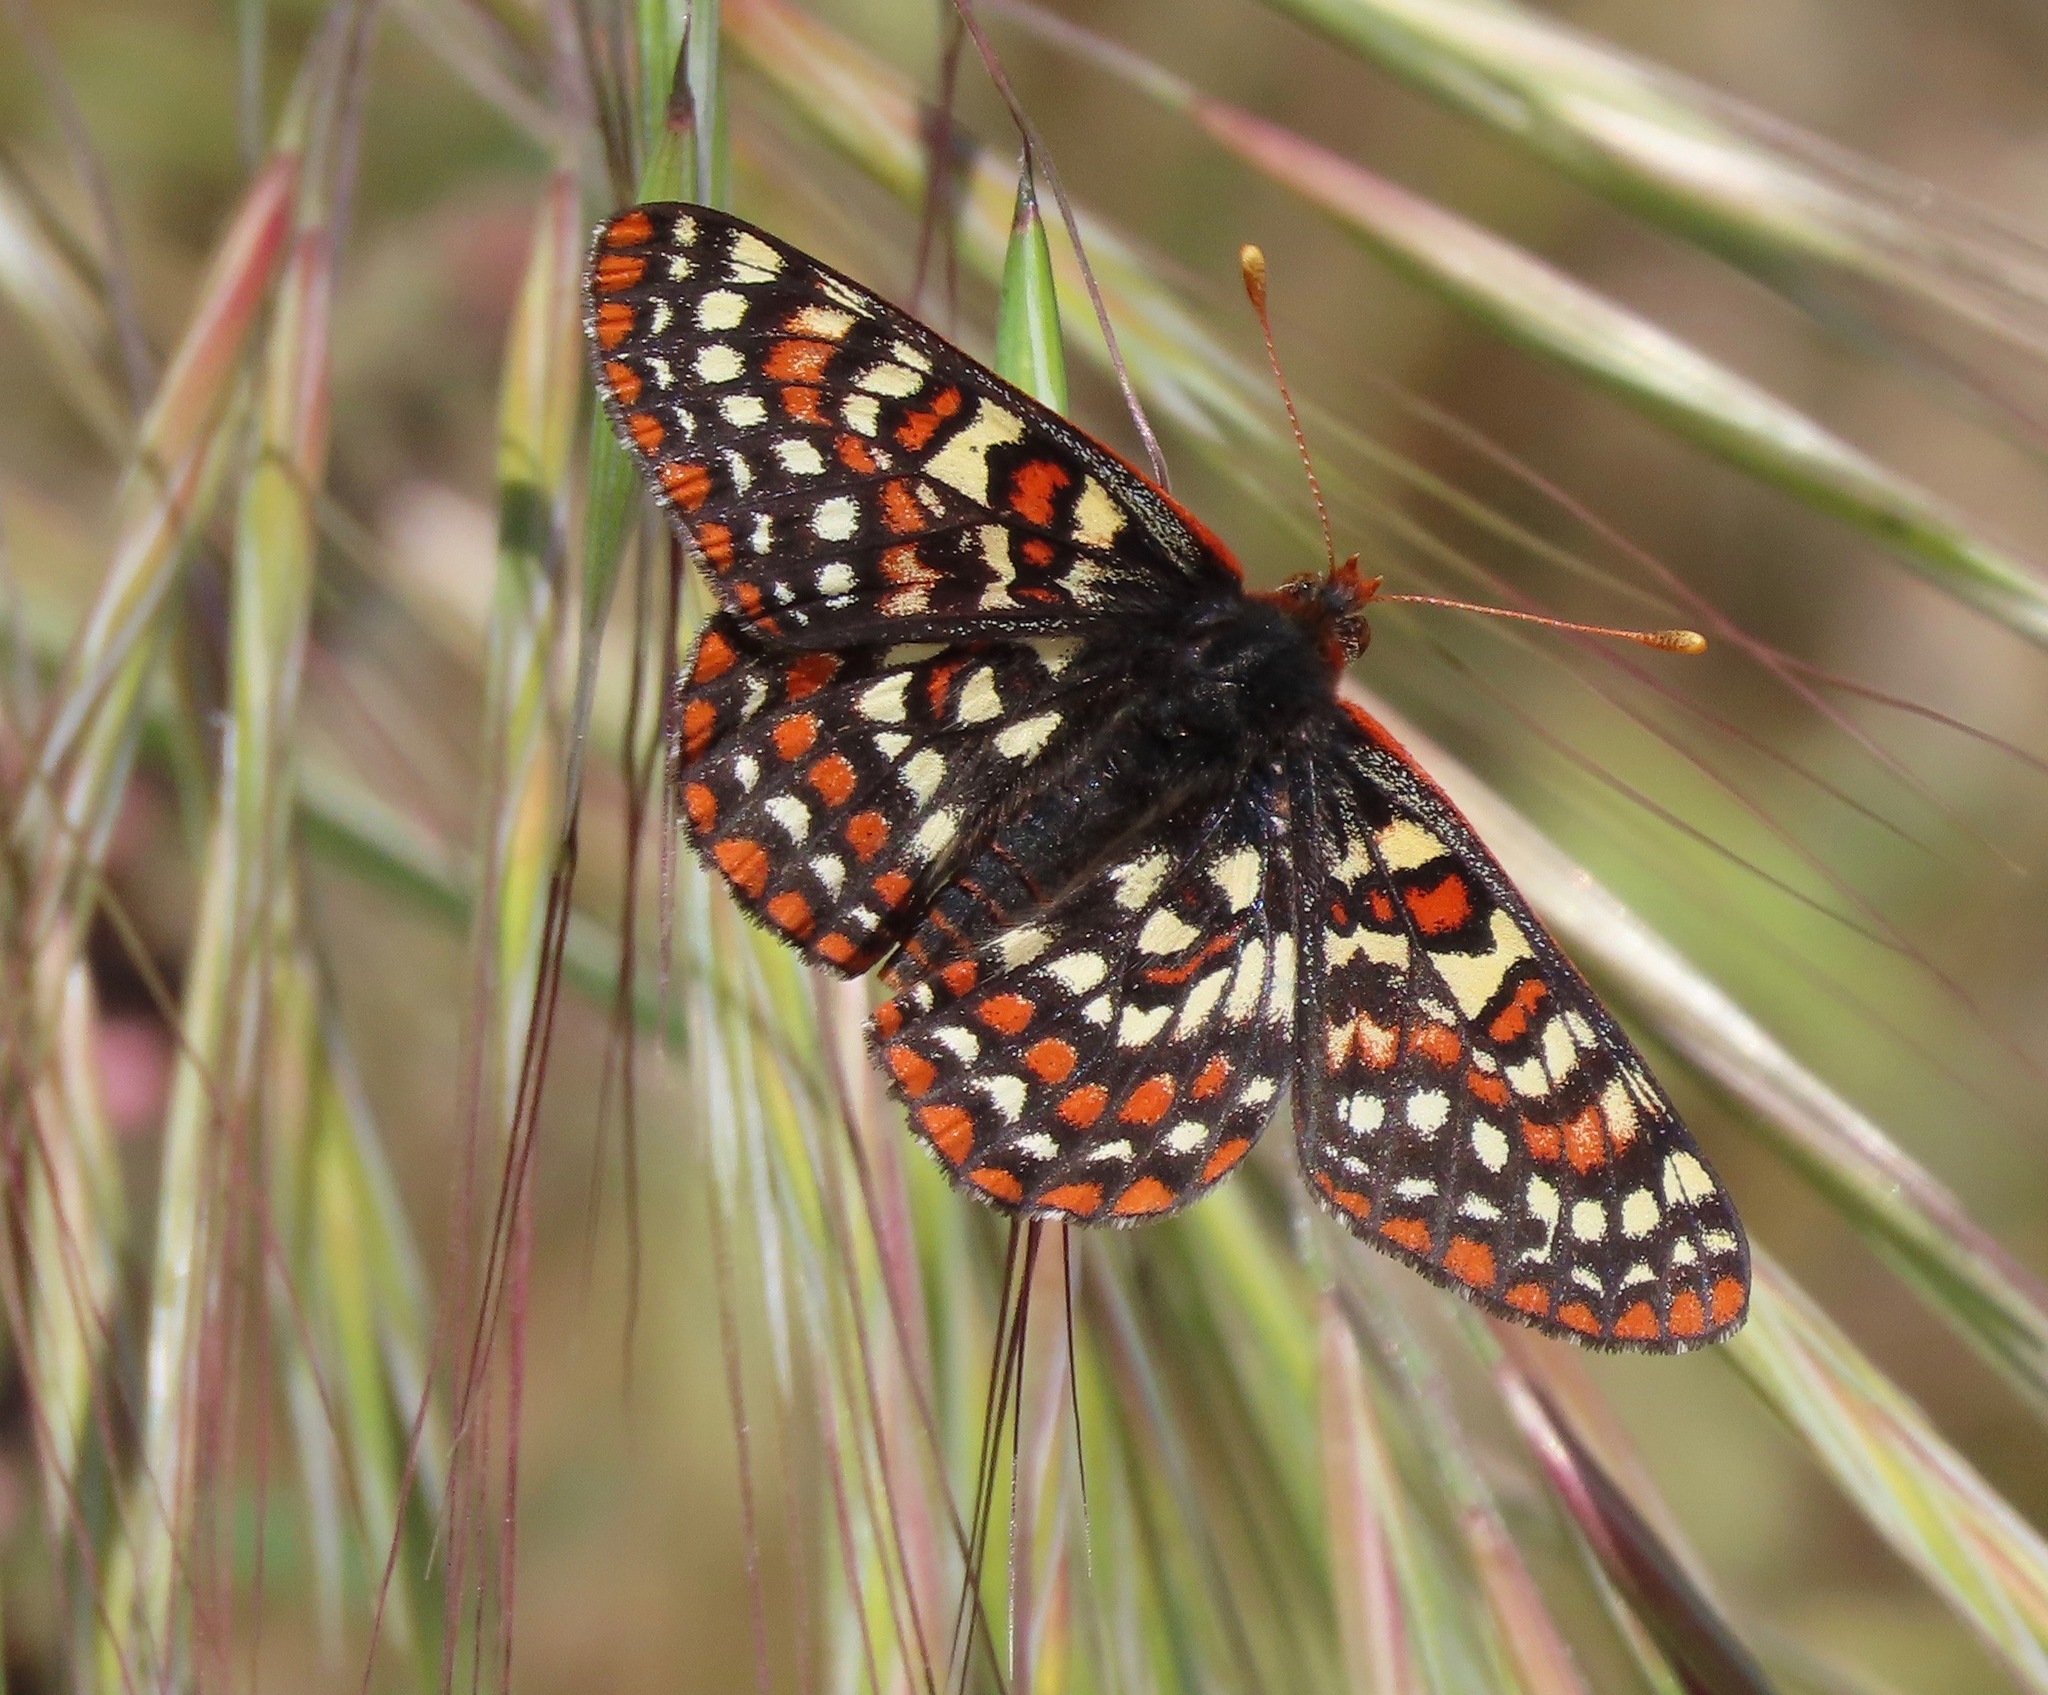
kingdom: Animalia
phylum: Arthropoda
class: Insecta
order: Lepidoptera
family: Nymphalidae
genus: Occidryas
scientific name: Occidryas editha
